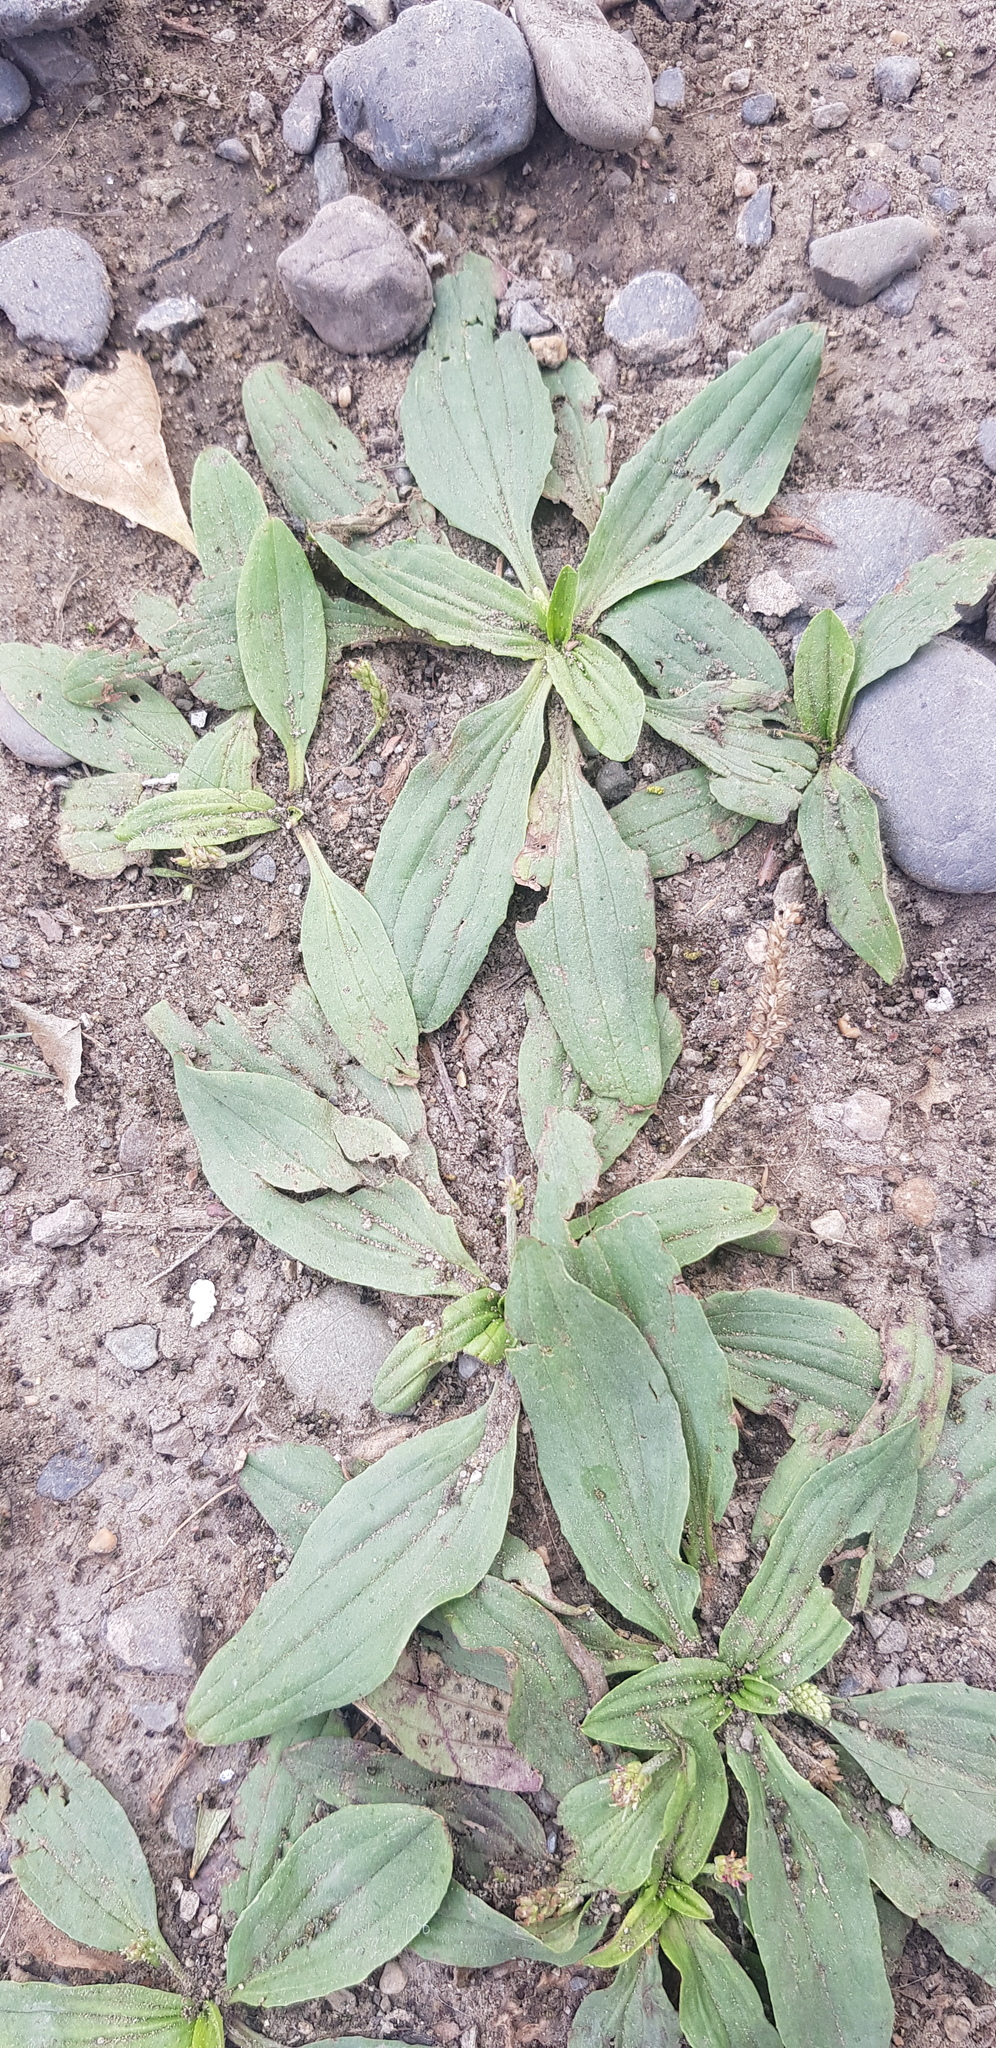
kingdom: Plantae
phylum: Tracheophyta
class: Magnoliopsida
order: Lamiales
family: Plantaginaceae
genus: Plantago
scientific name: Plantago depressa
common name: Depressed plantain
